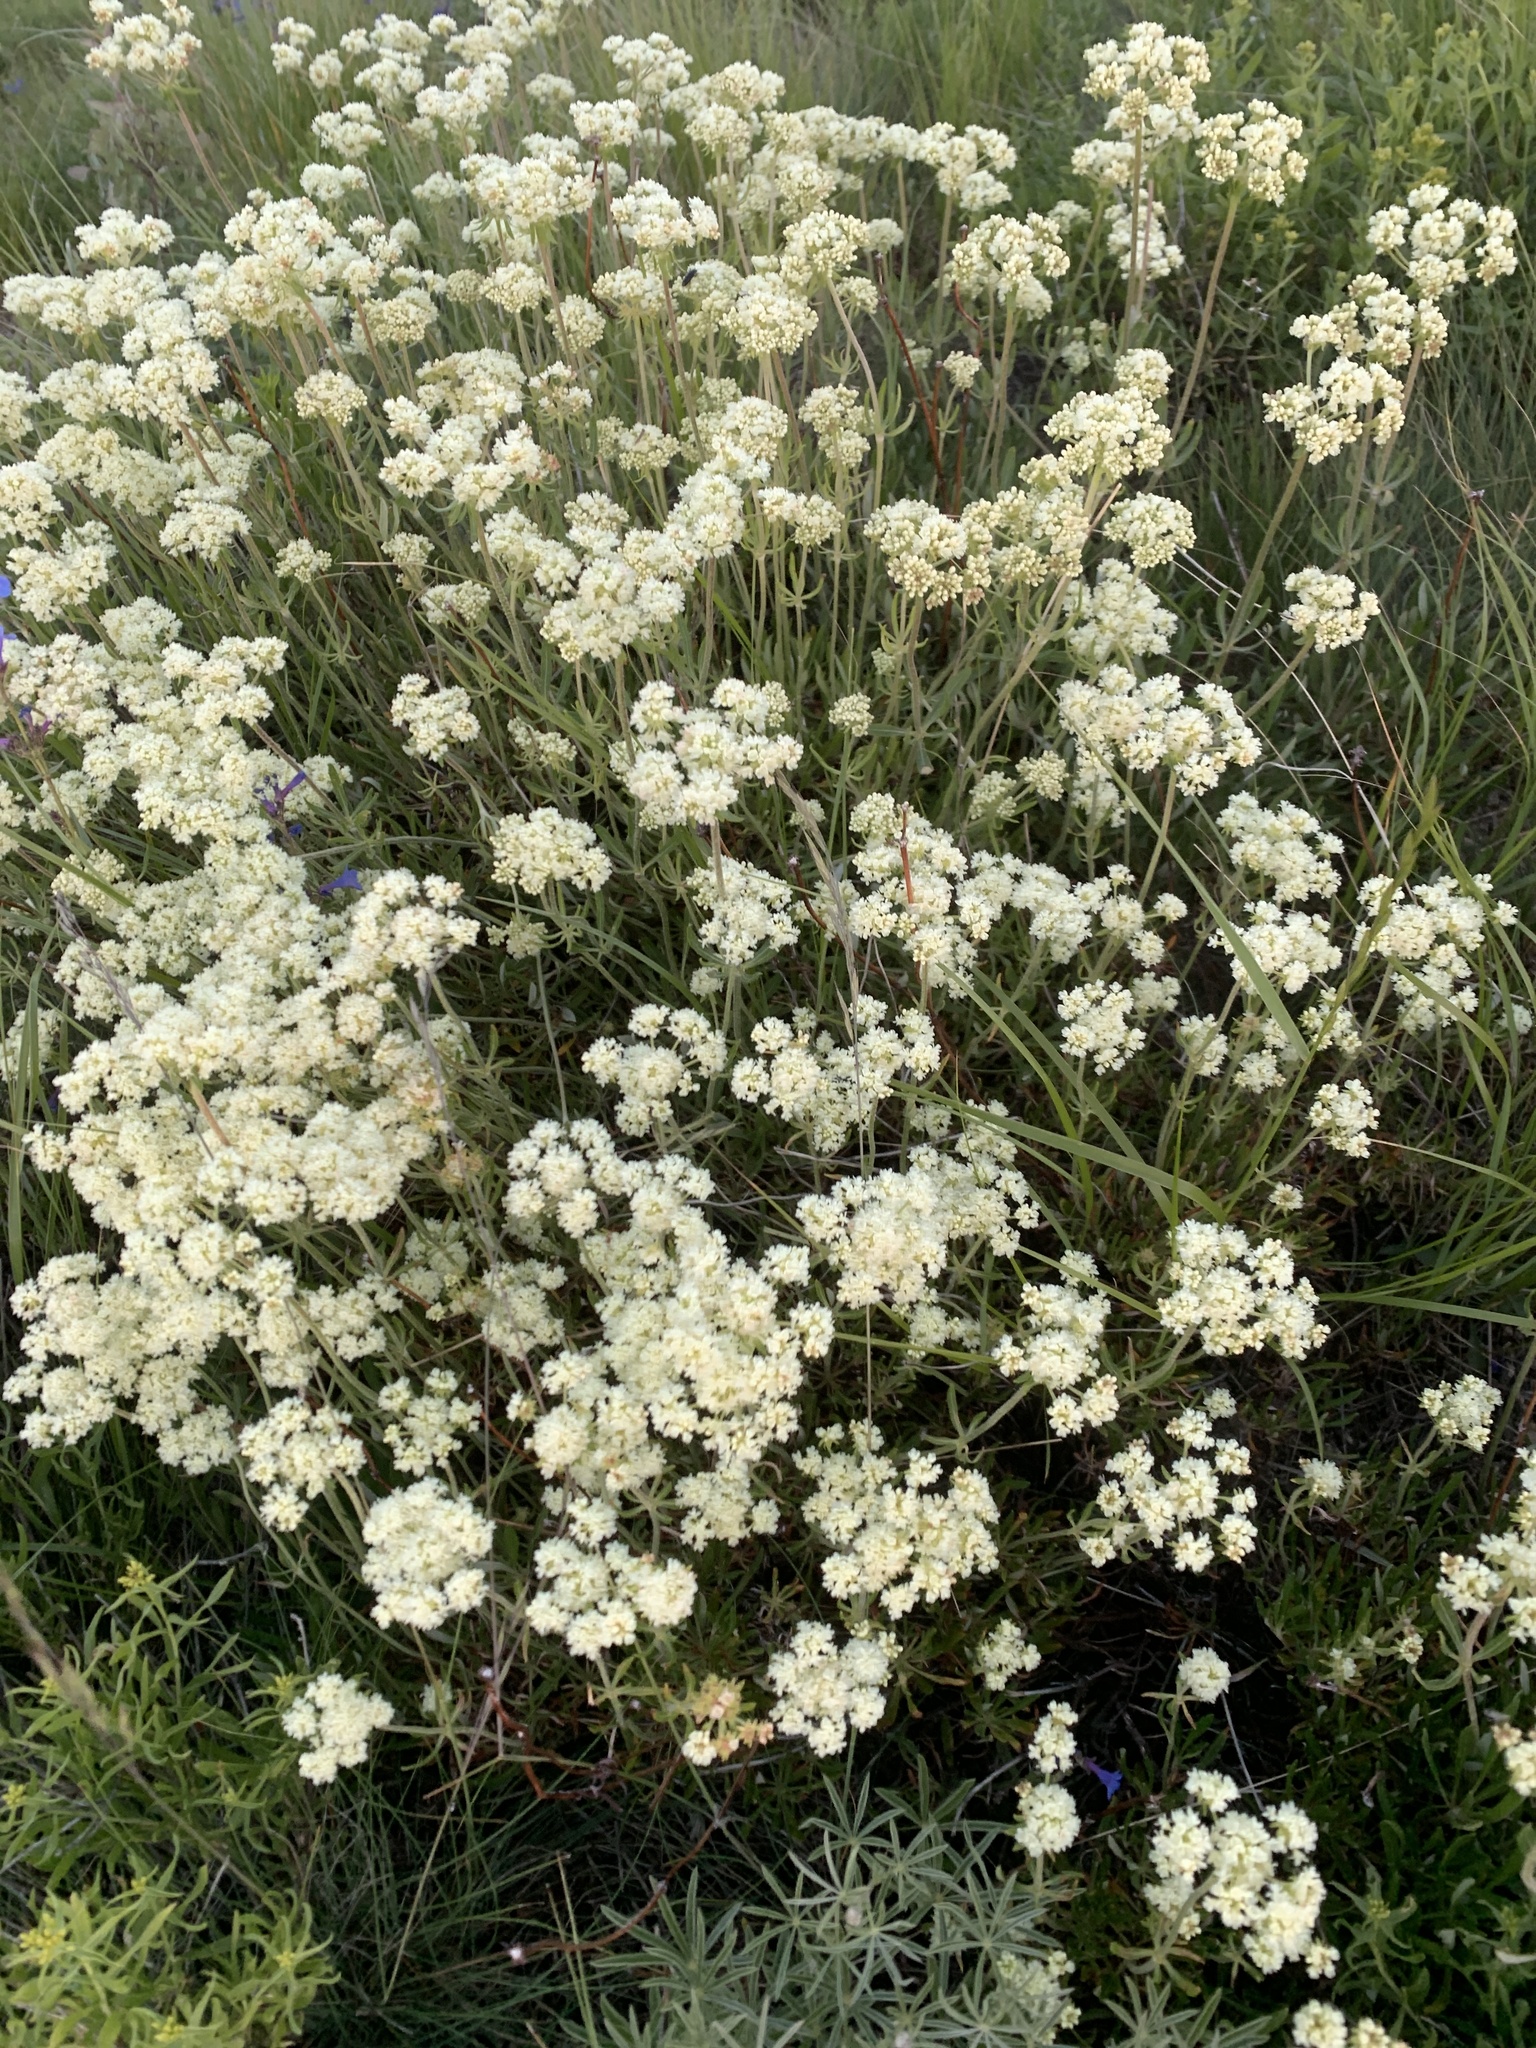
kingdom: Plantae
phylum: Tracheophyta
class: Magnoliopsida
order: Caryophyllales
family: Polygonaceae
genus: Eriogonum
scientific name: Eriogonum heracleoides
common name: Wyeth's buckwheat
